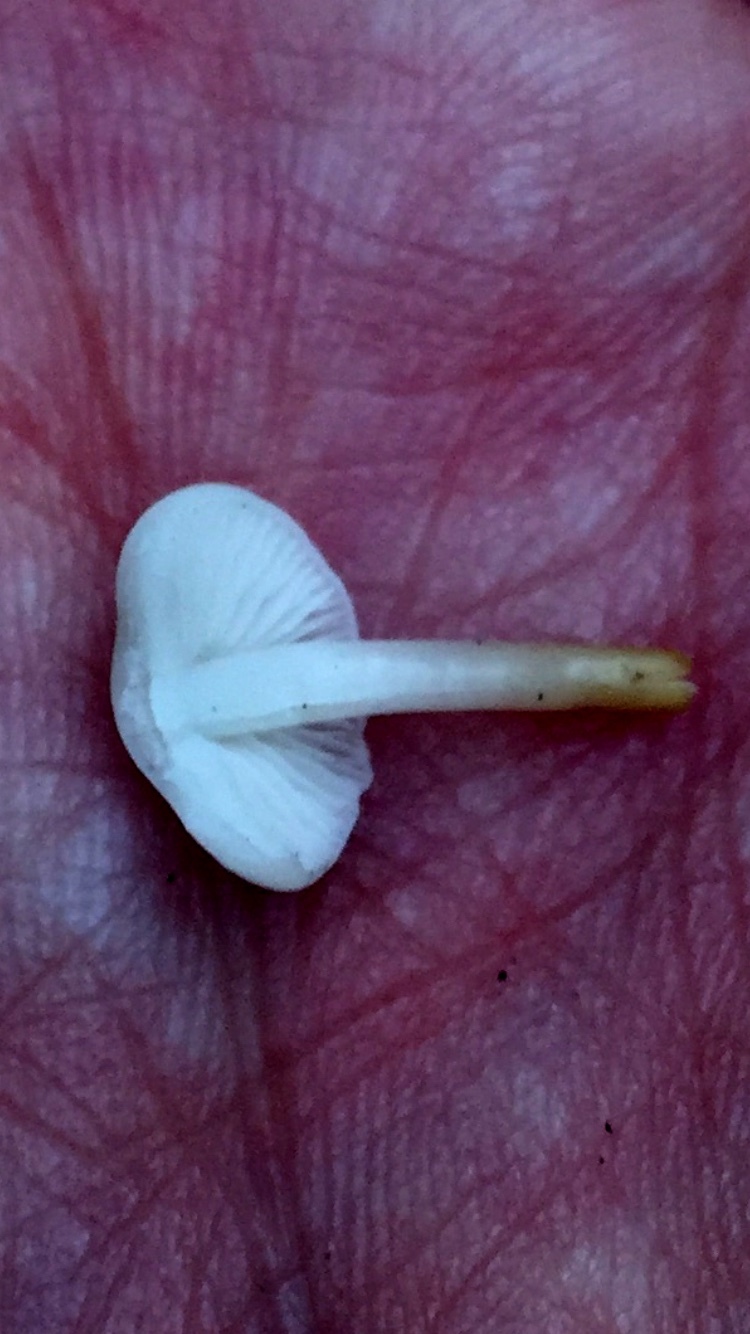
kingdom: Fungi
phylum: Basidiomycota
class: Agaricomycetes
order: Agaricales
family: Physalacriaceae
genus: Strobilurus
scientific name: Strobilurus esculentus
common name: Sprucecone cap
